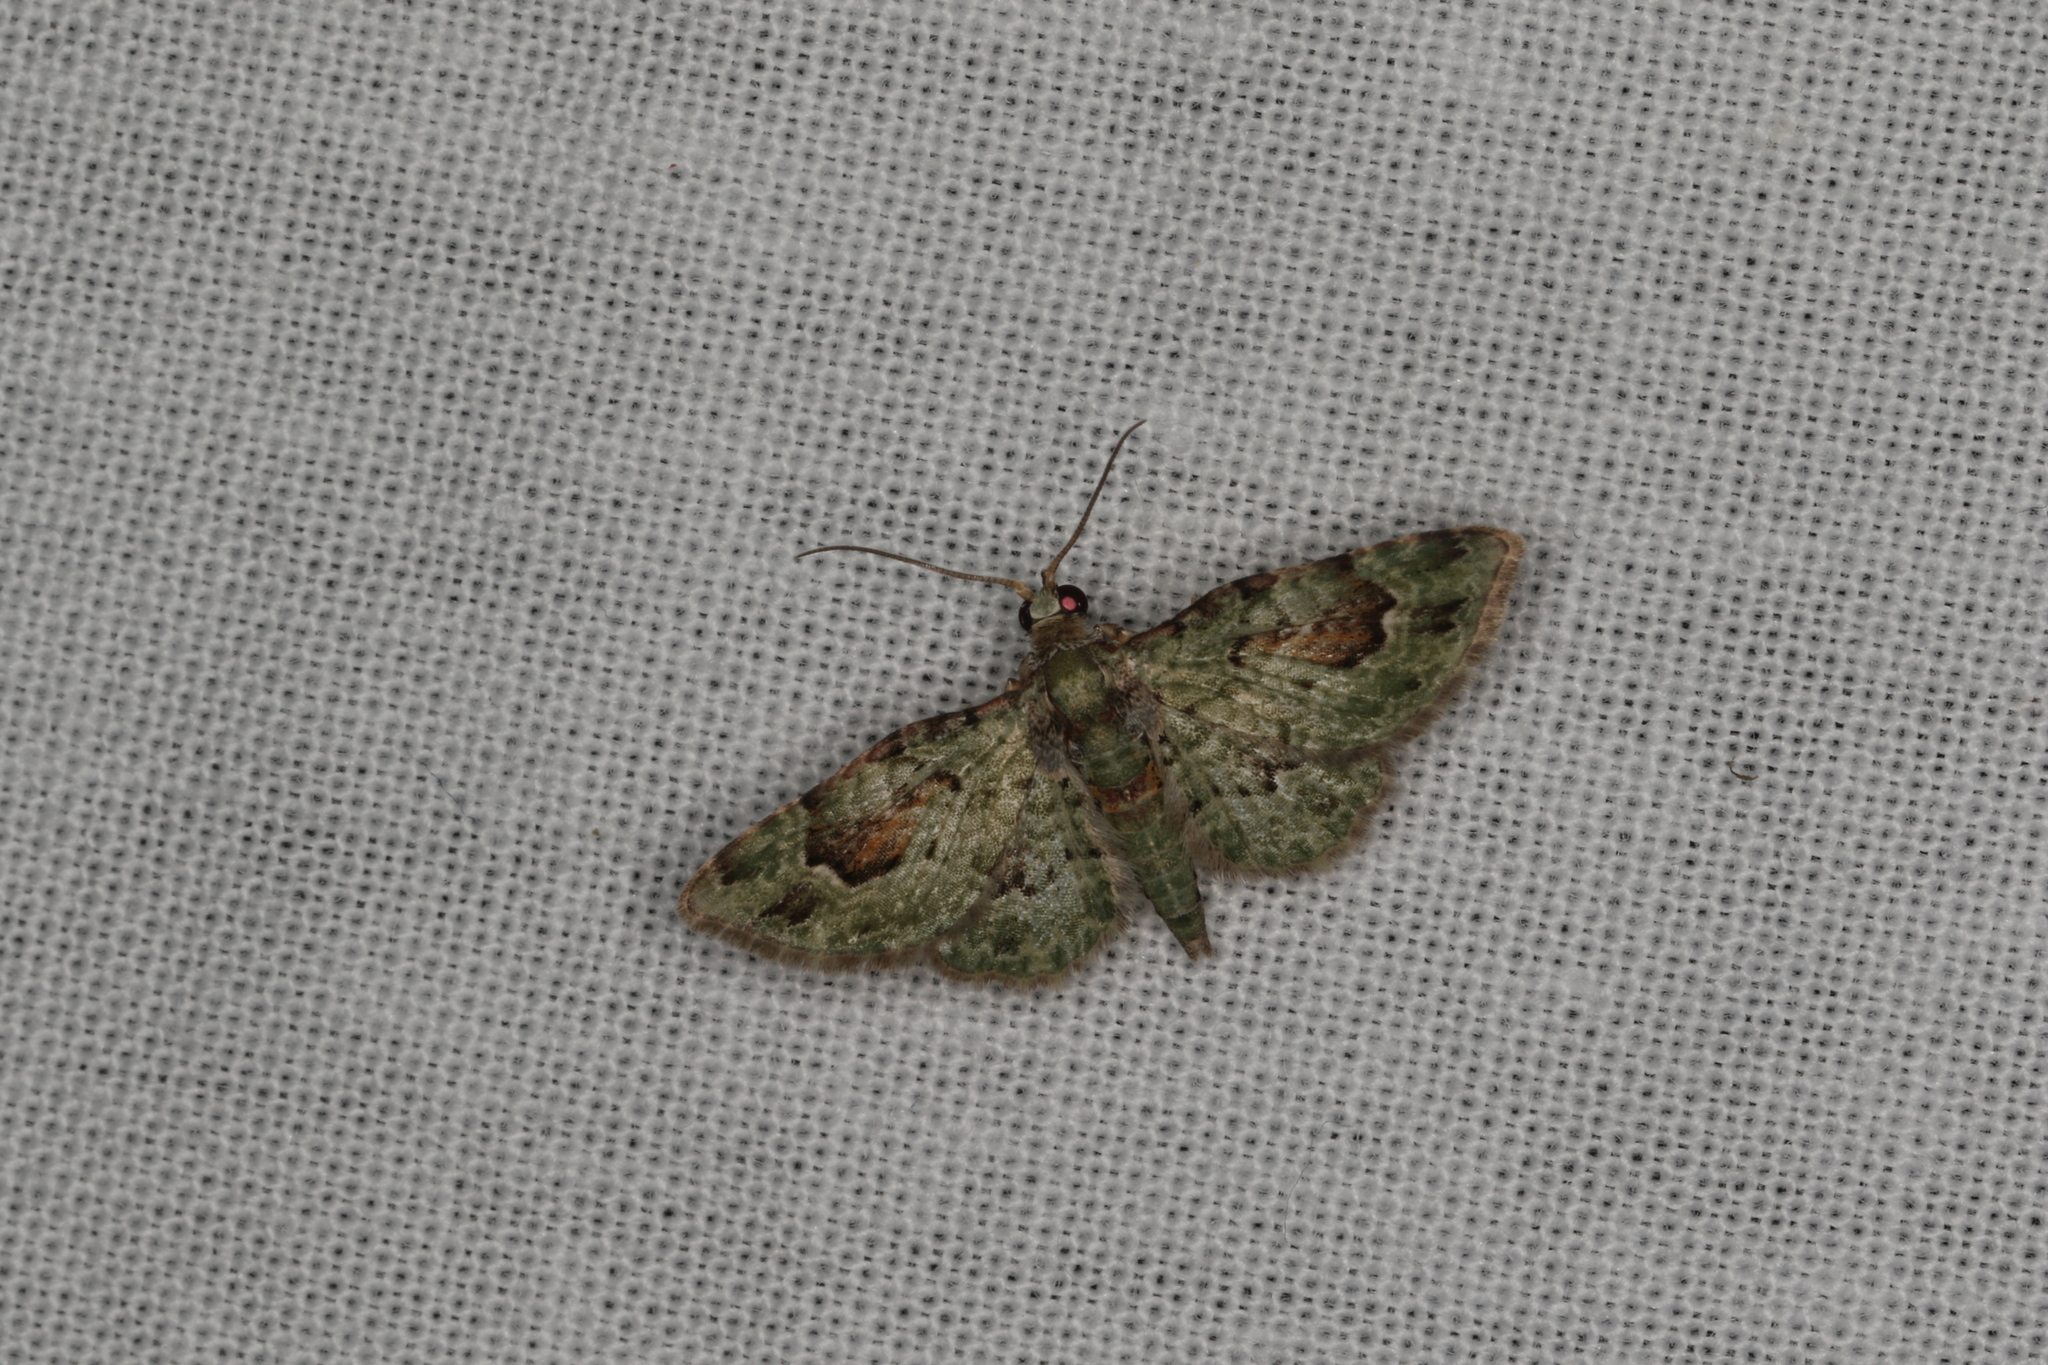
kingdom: Animalia
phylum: Arthropoda
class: Insecta
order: Lepidoptera
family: Geometridae
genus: Calluga
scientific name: Calluga costalis
